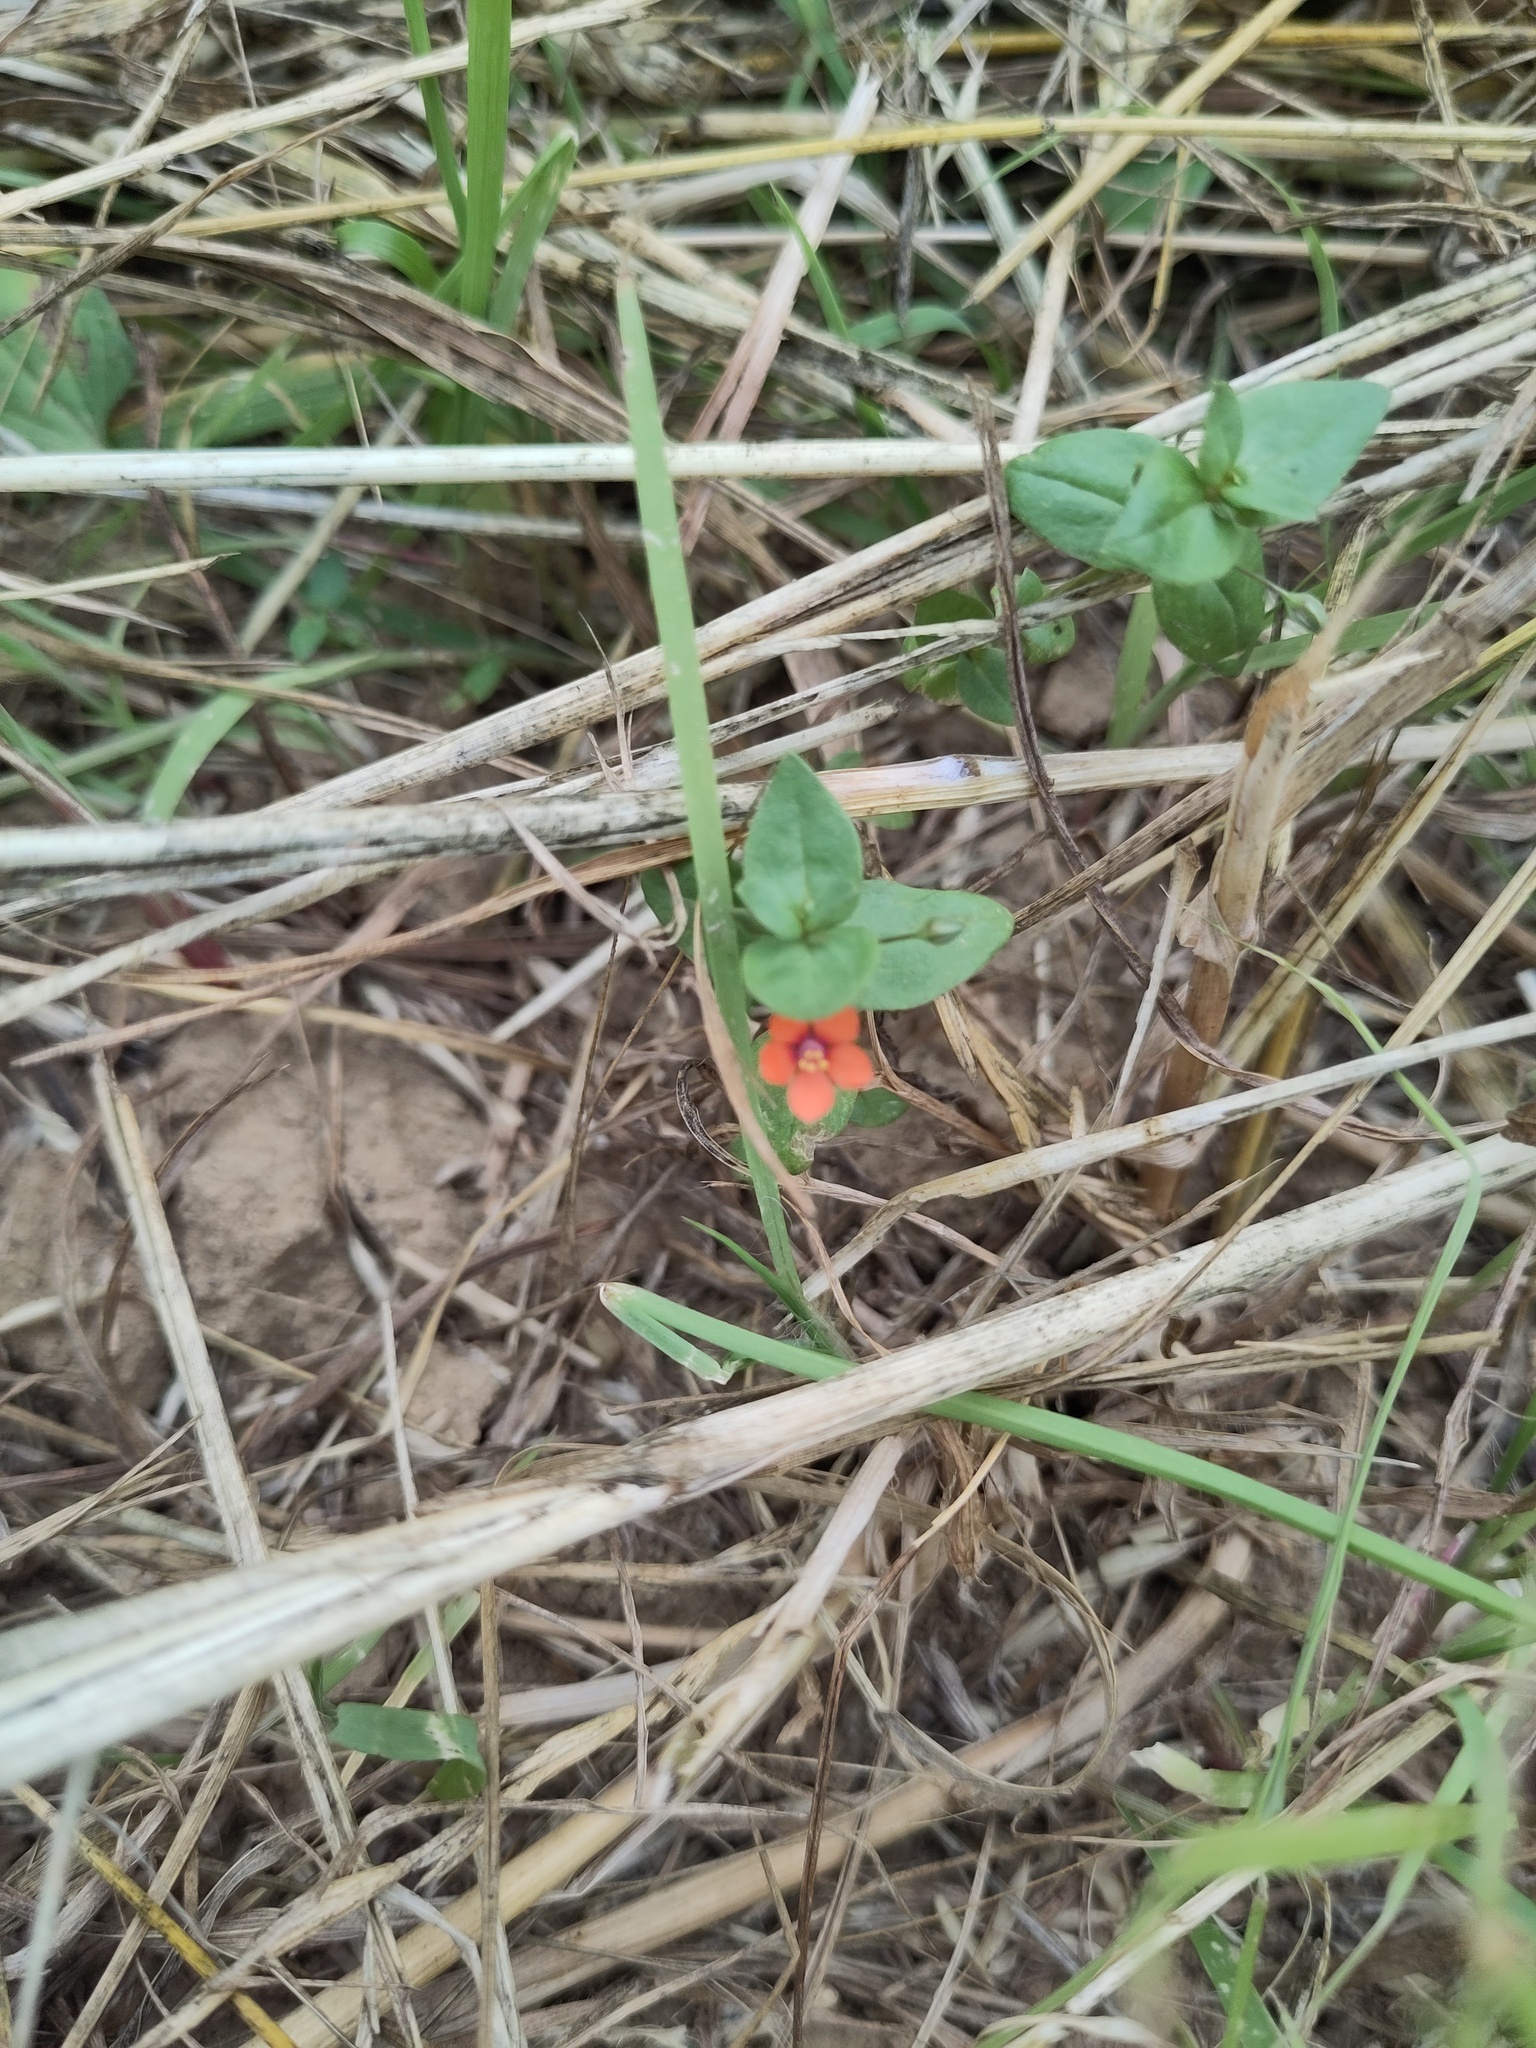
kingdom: Plantae
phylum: Tracheophyta
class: Magnoliopsida
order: Ericales
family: Primulaceae
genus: Lysimachia
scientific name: Lysimachia arvensis
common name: Scarlet pimpernel
